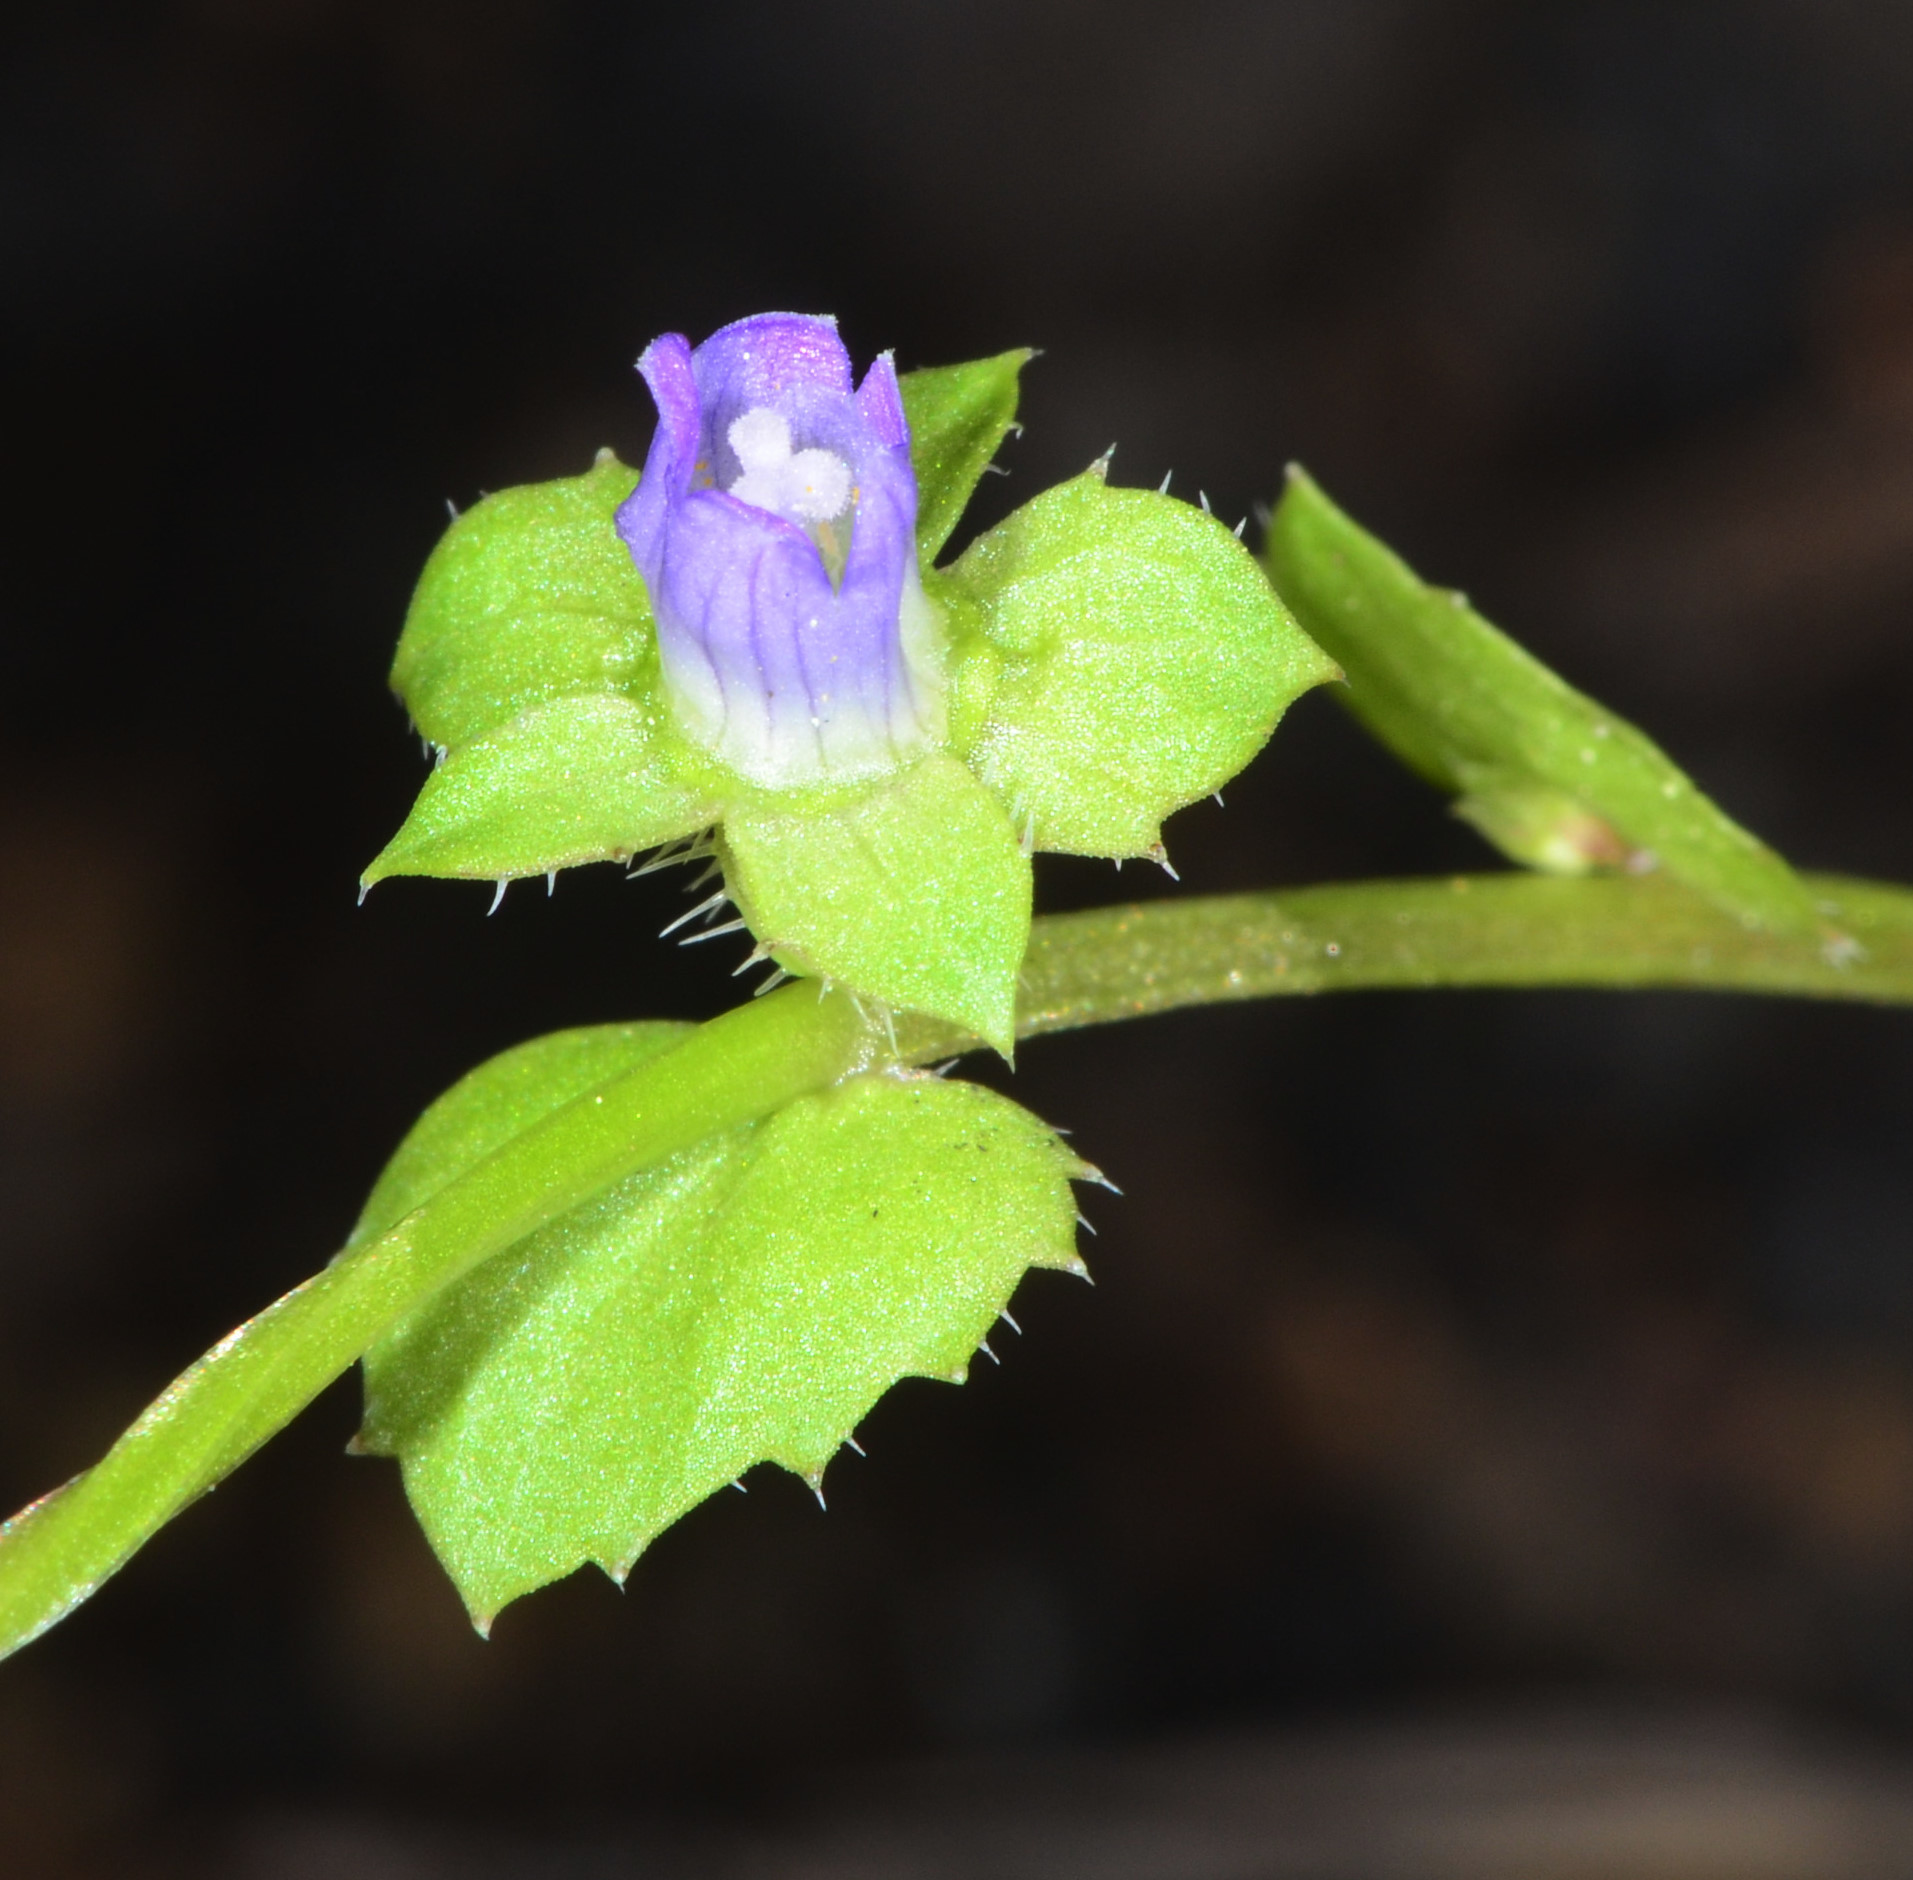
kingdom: Plantae
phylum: Tracheophyta
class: Magnoliopsida
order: Asterales
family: Campanulaceae
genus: Heterocodon
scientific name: Heterocodon rariflorum
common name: Rareflower heterocodon
